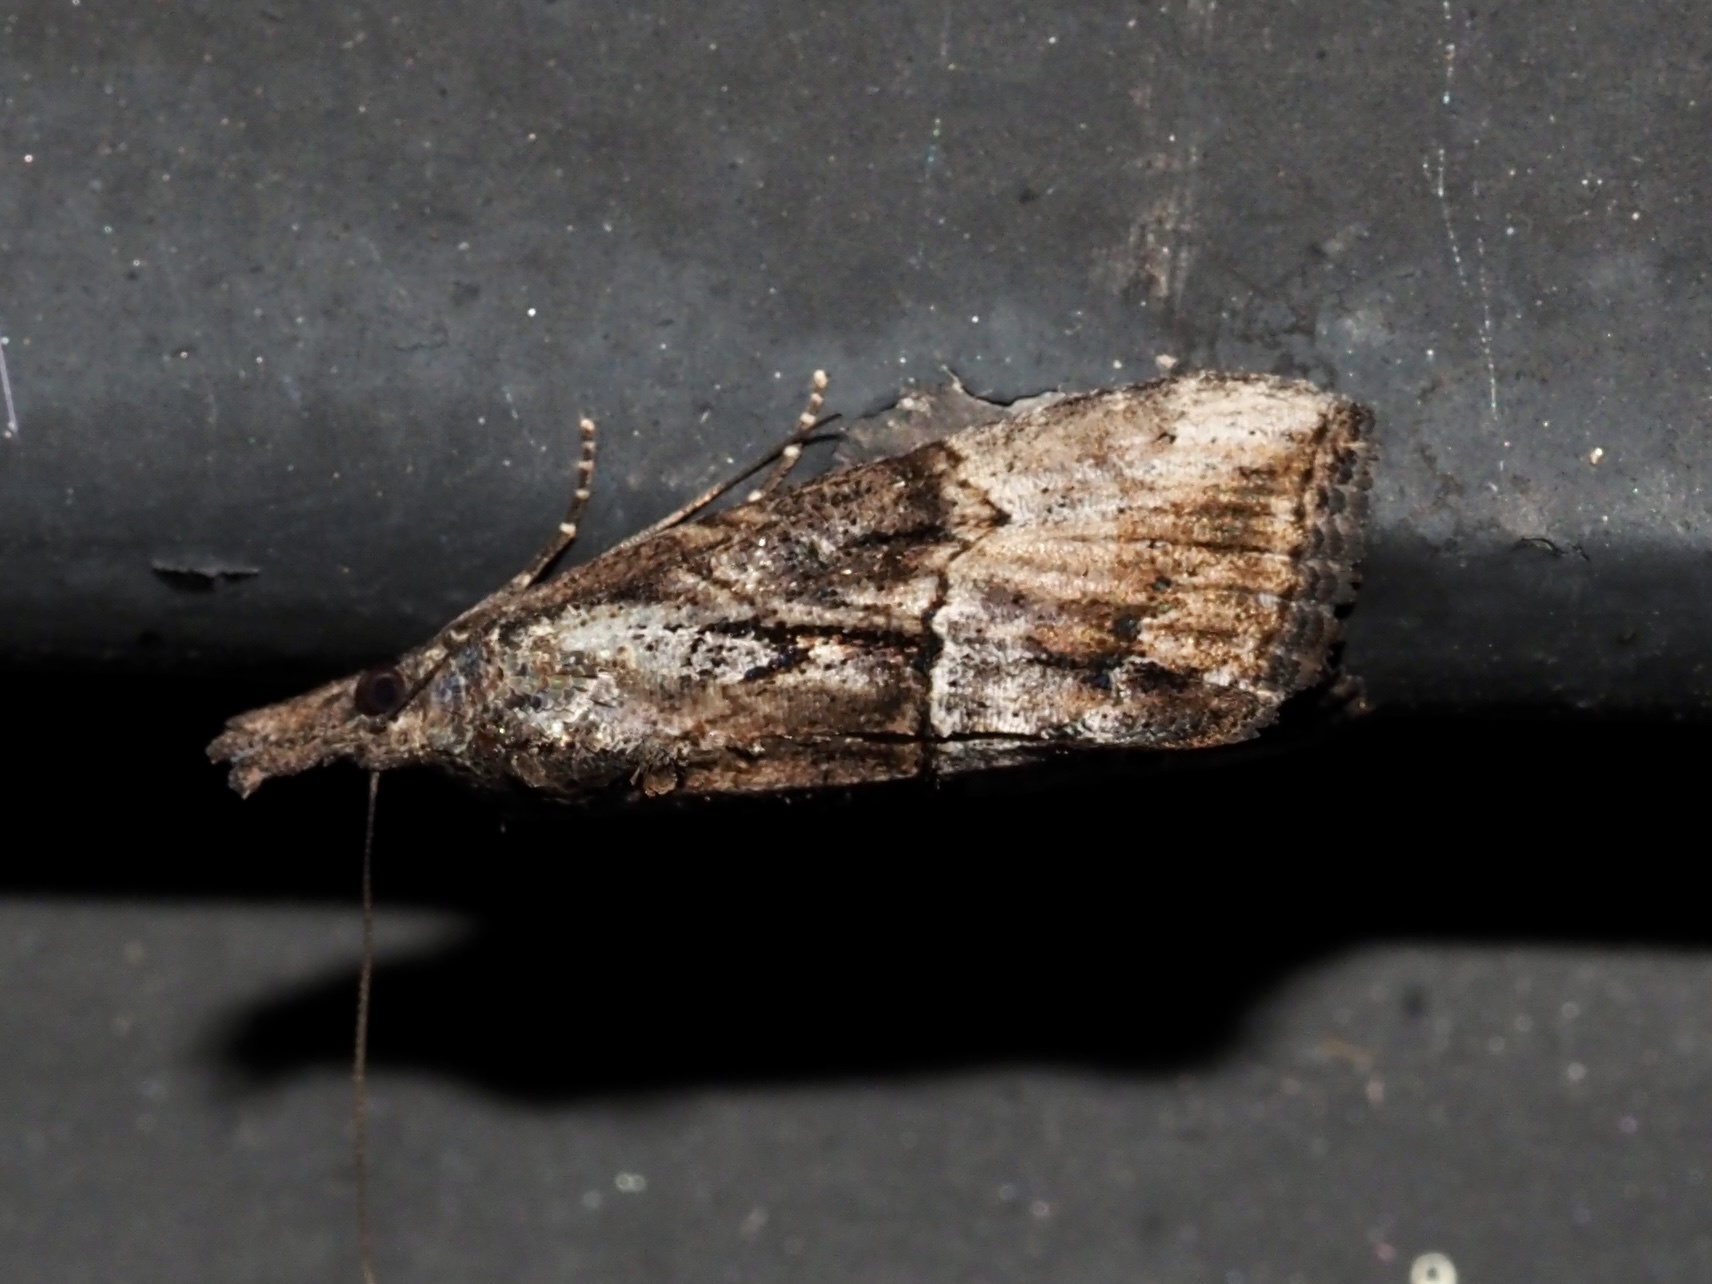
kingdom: Animalia
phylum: Arthropoda
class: Insecta
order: Lepidoptera
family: Erebidae
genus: Hypena
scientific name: Hypena scabra
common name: Green cloverworm
